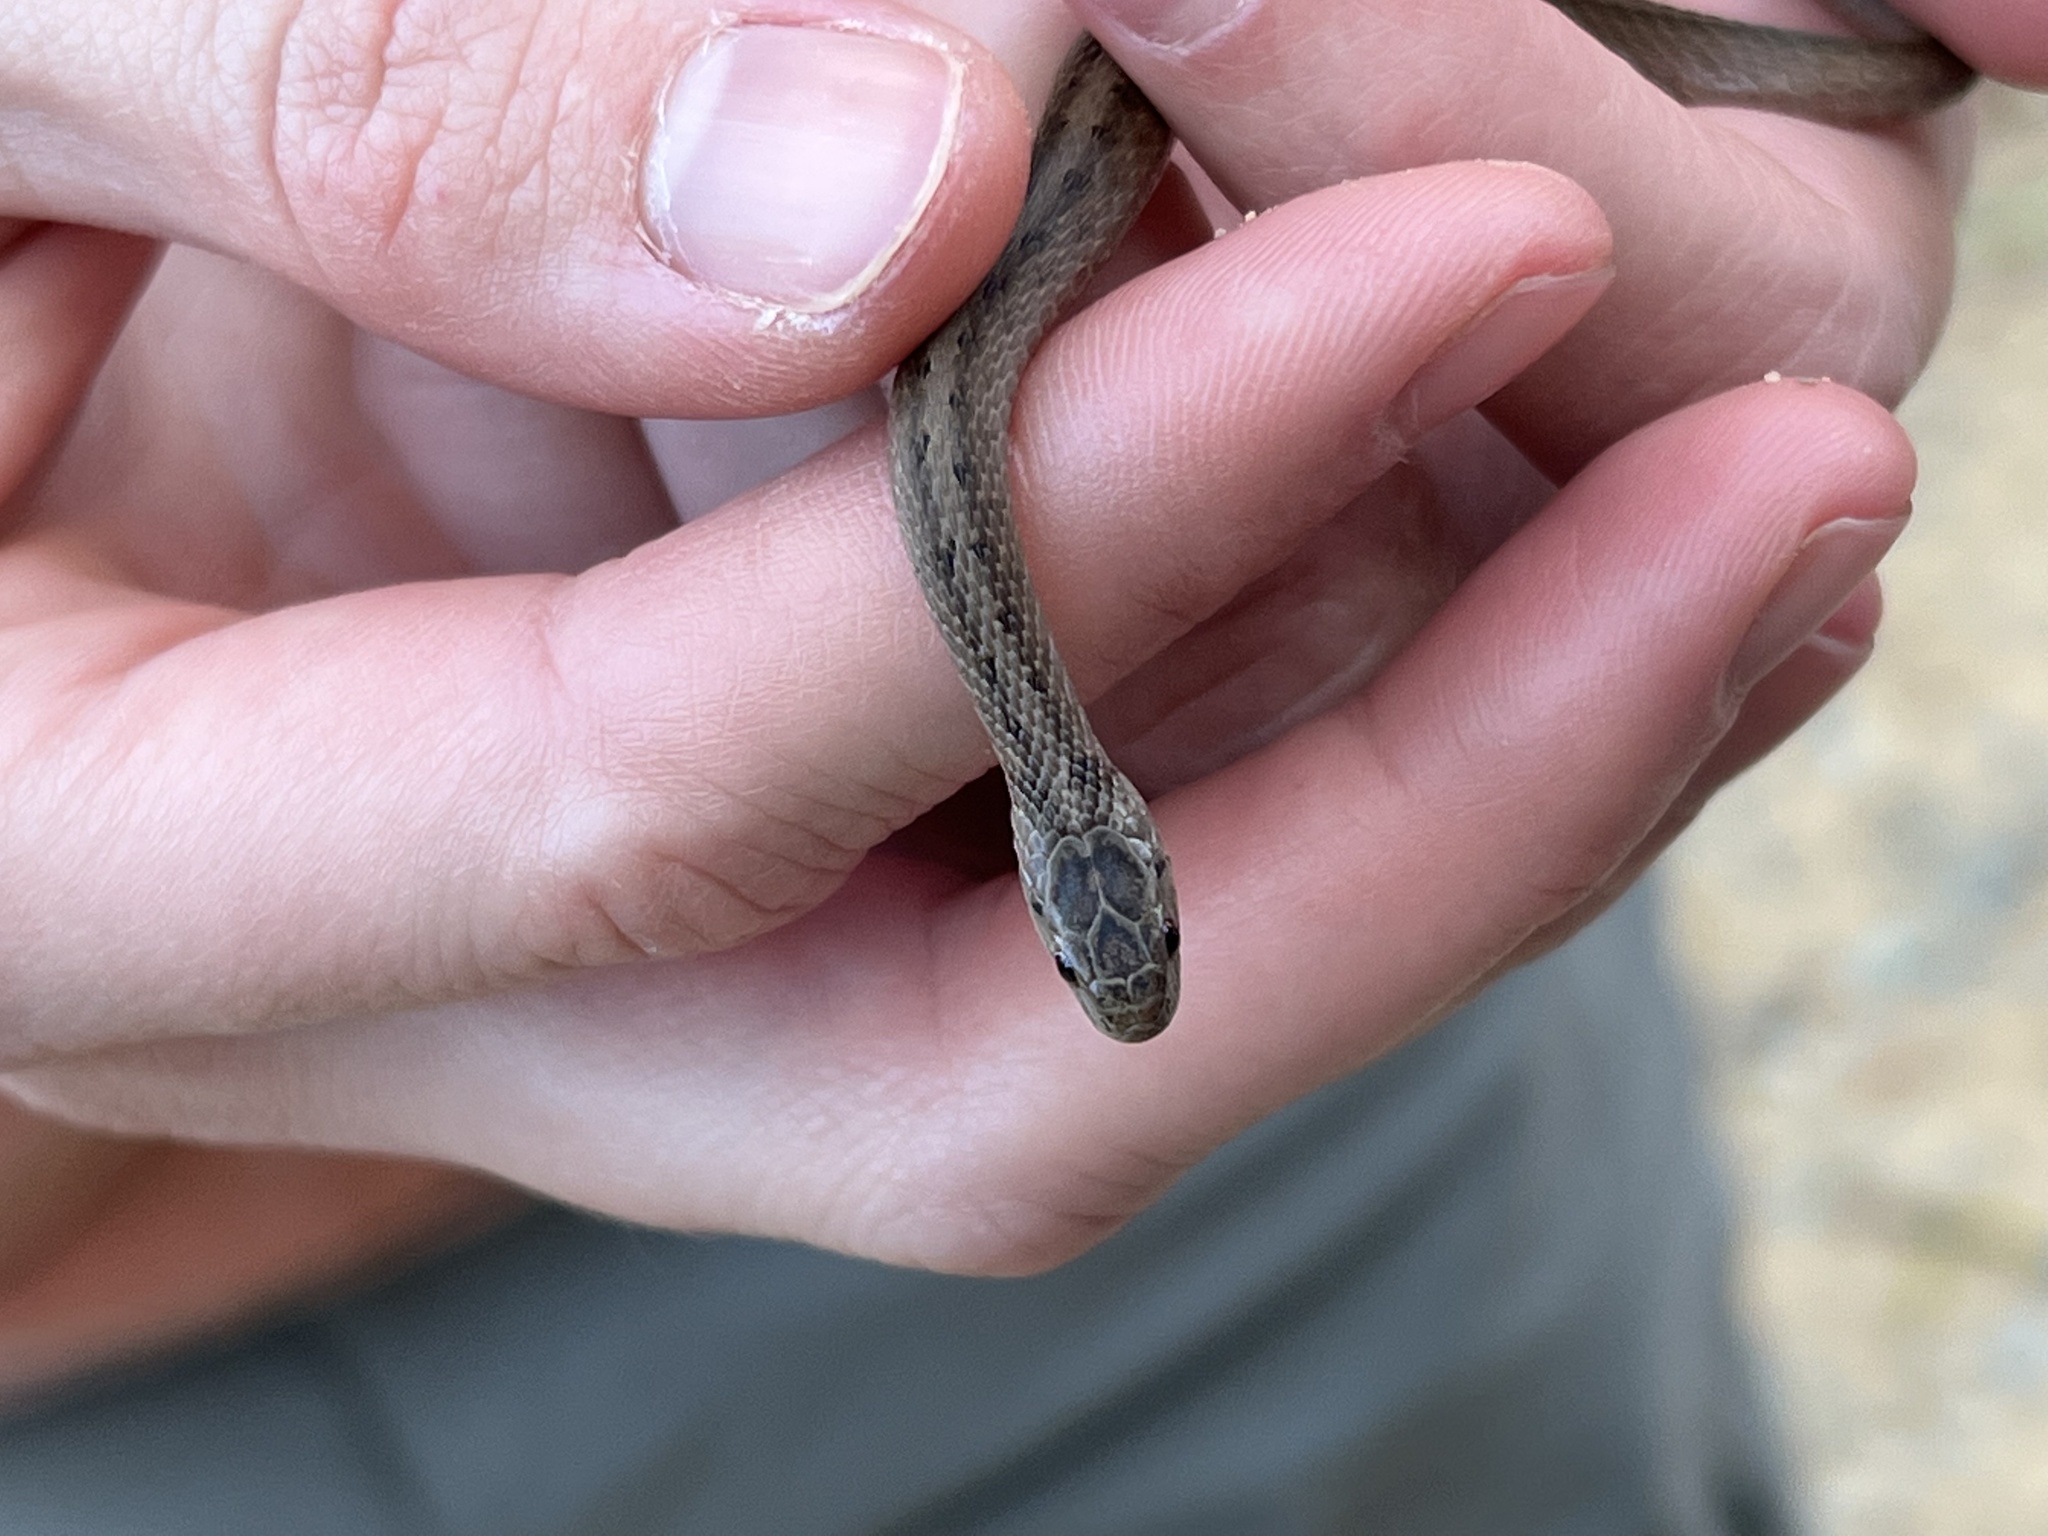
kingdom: Animalia
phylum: Chordata
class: Squamata
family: Colubridae
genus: Storeria
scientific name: Storeria dekayi
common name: (dekay’s) brown snake
